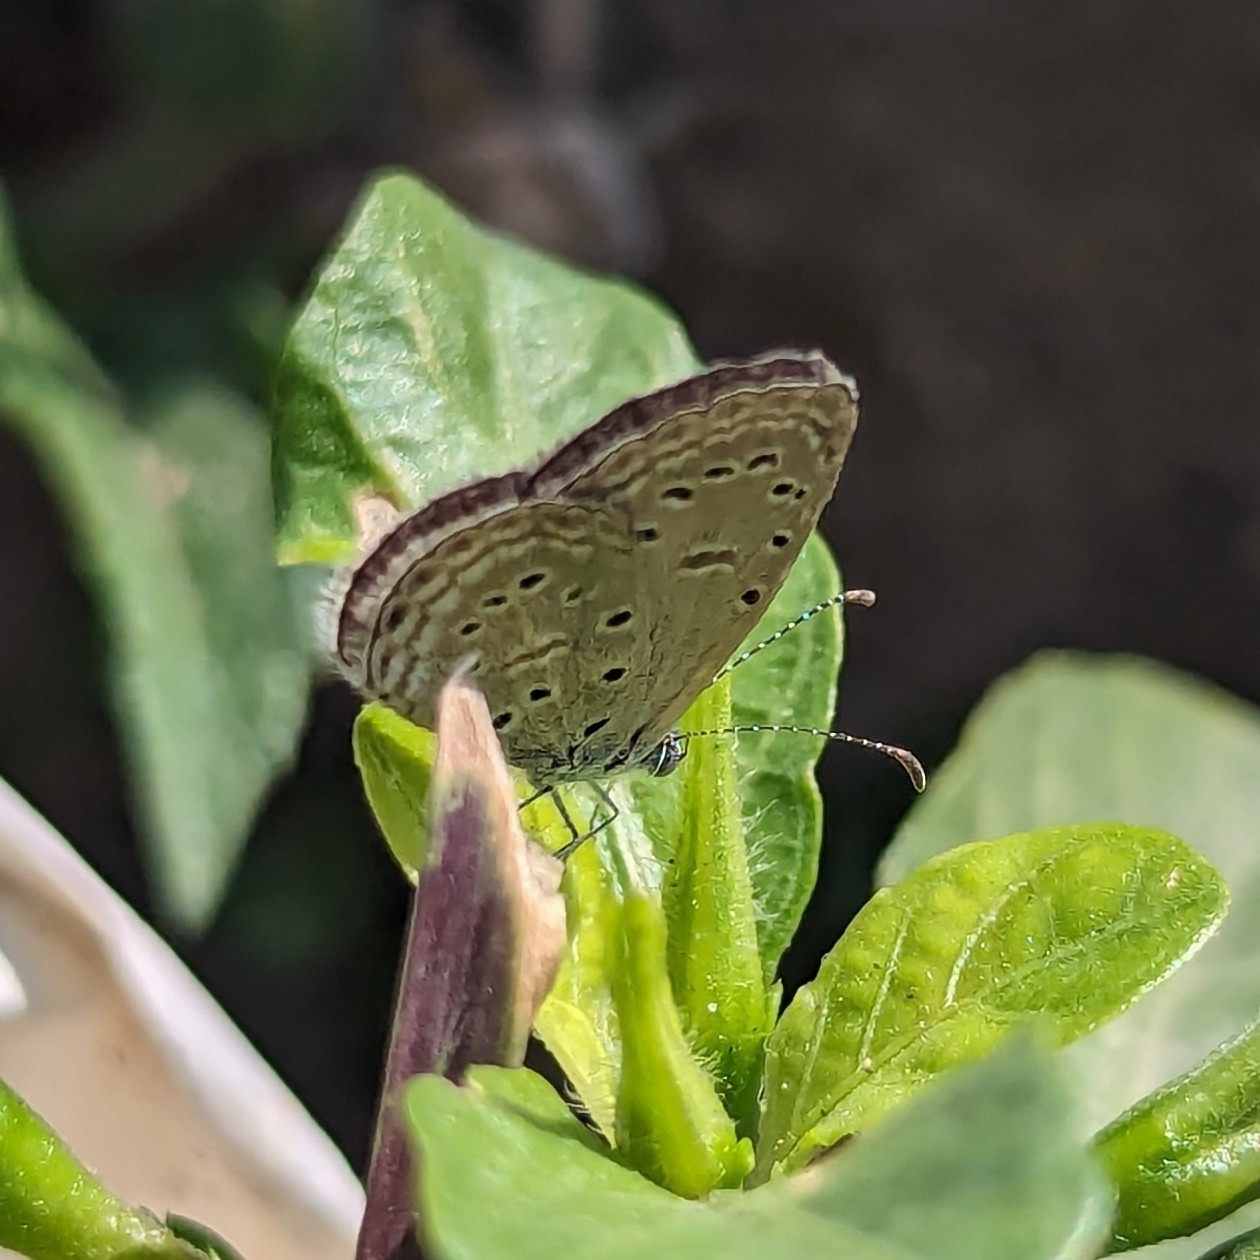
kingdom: Animalia
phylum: Arthropoda
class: Insecta
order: Lepidoptera
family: Lycaenidae
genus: Zizula
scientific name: Zizula hylax
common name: Gaika blue
